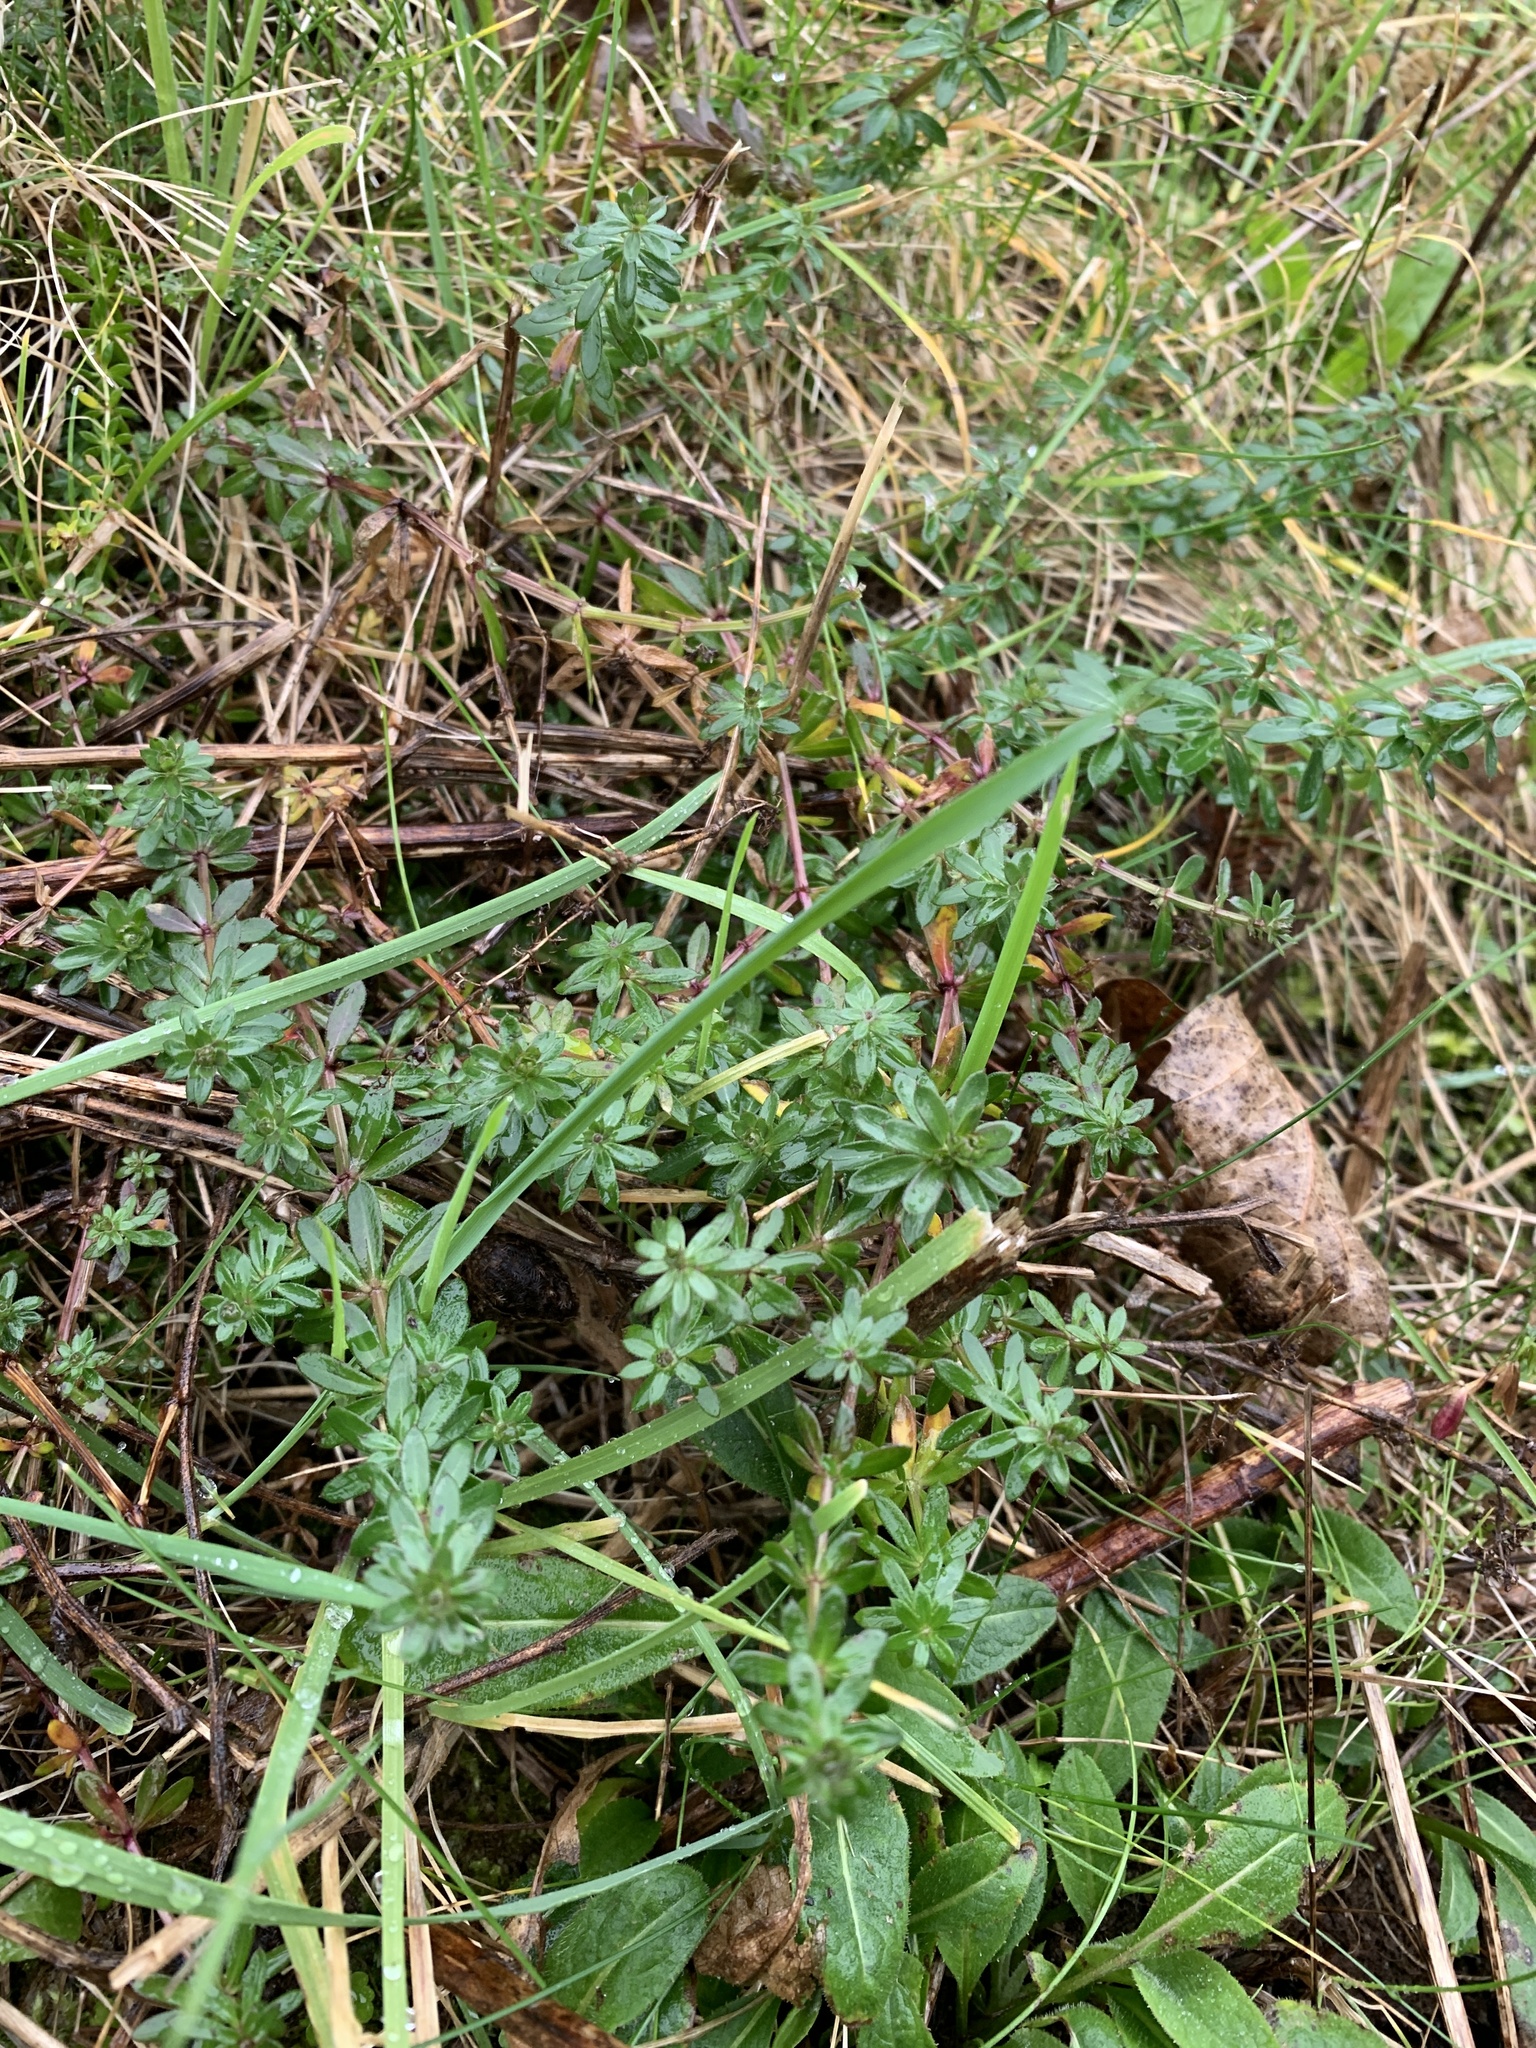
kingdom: Plantae
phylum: Tracheophyta
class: Magnoliopsida
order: Gentianales
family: Rubiaceae
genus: Galium
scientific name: Galium mollugo
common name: Hedge bedstraw
